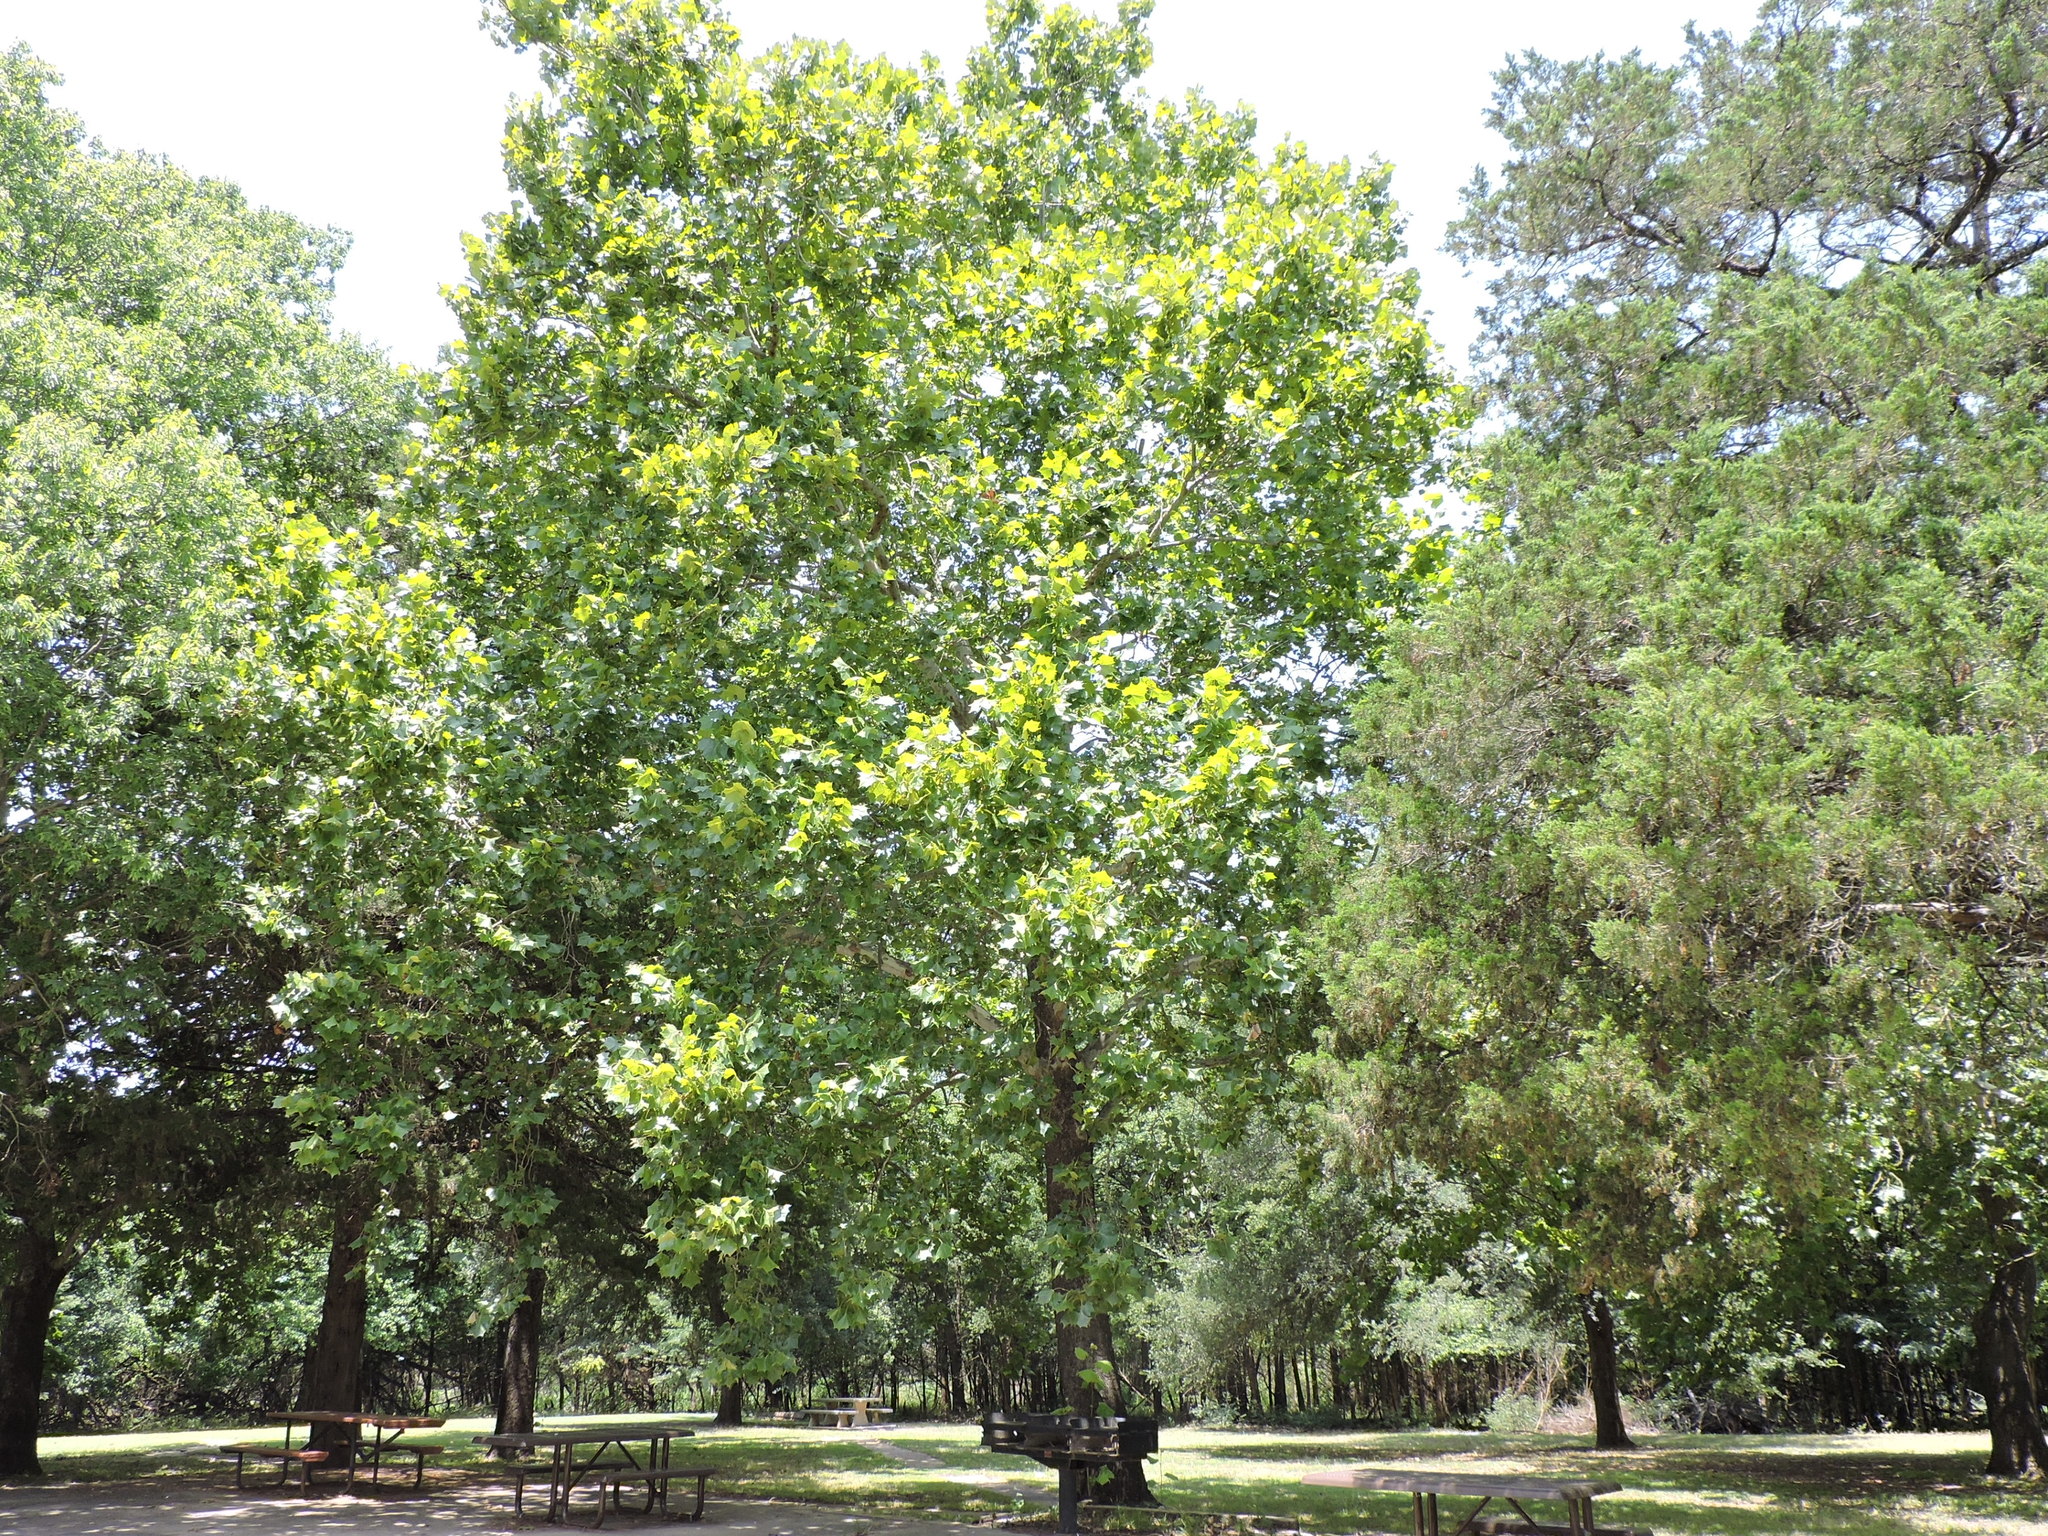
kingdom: Plantae
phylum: Tracheophyta
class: Magnoliopsida
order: Proteales
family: Platanaceae
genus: Platanus
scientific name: Platanus occidentalis
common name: American sycamore
